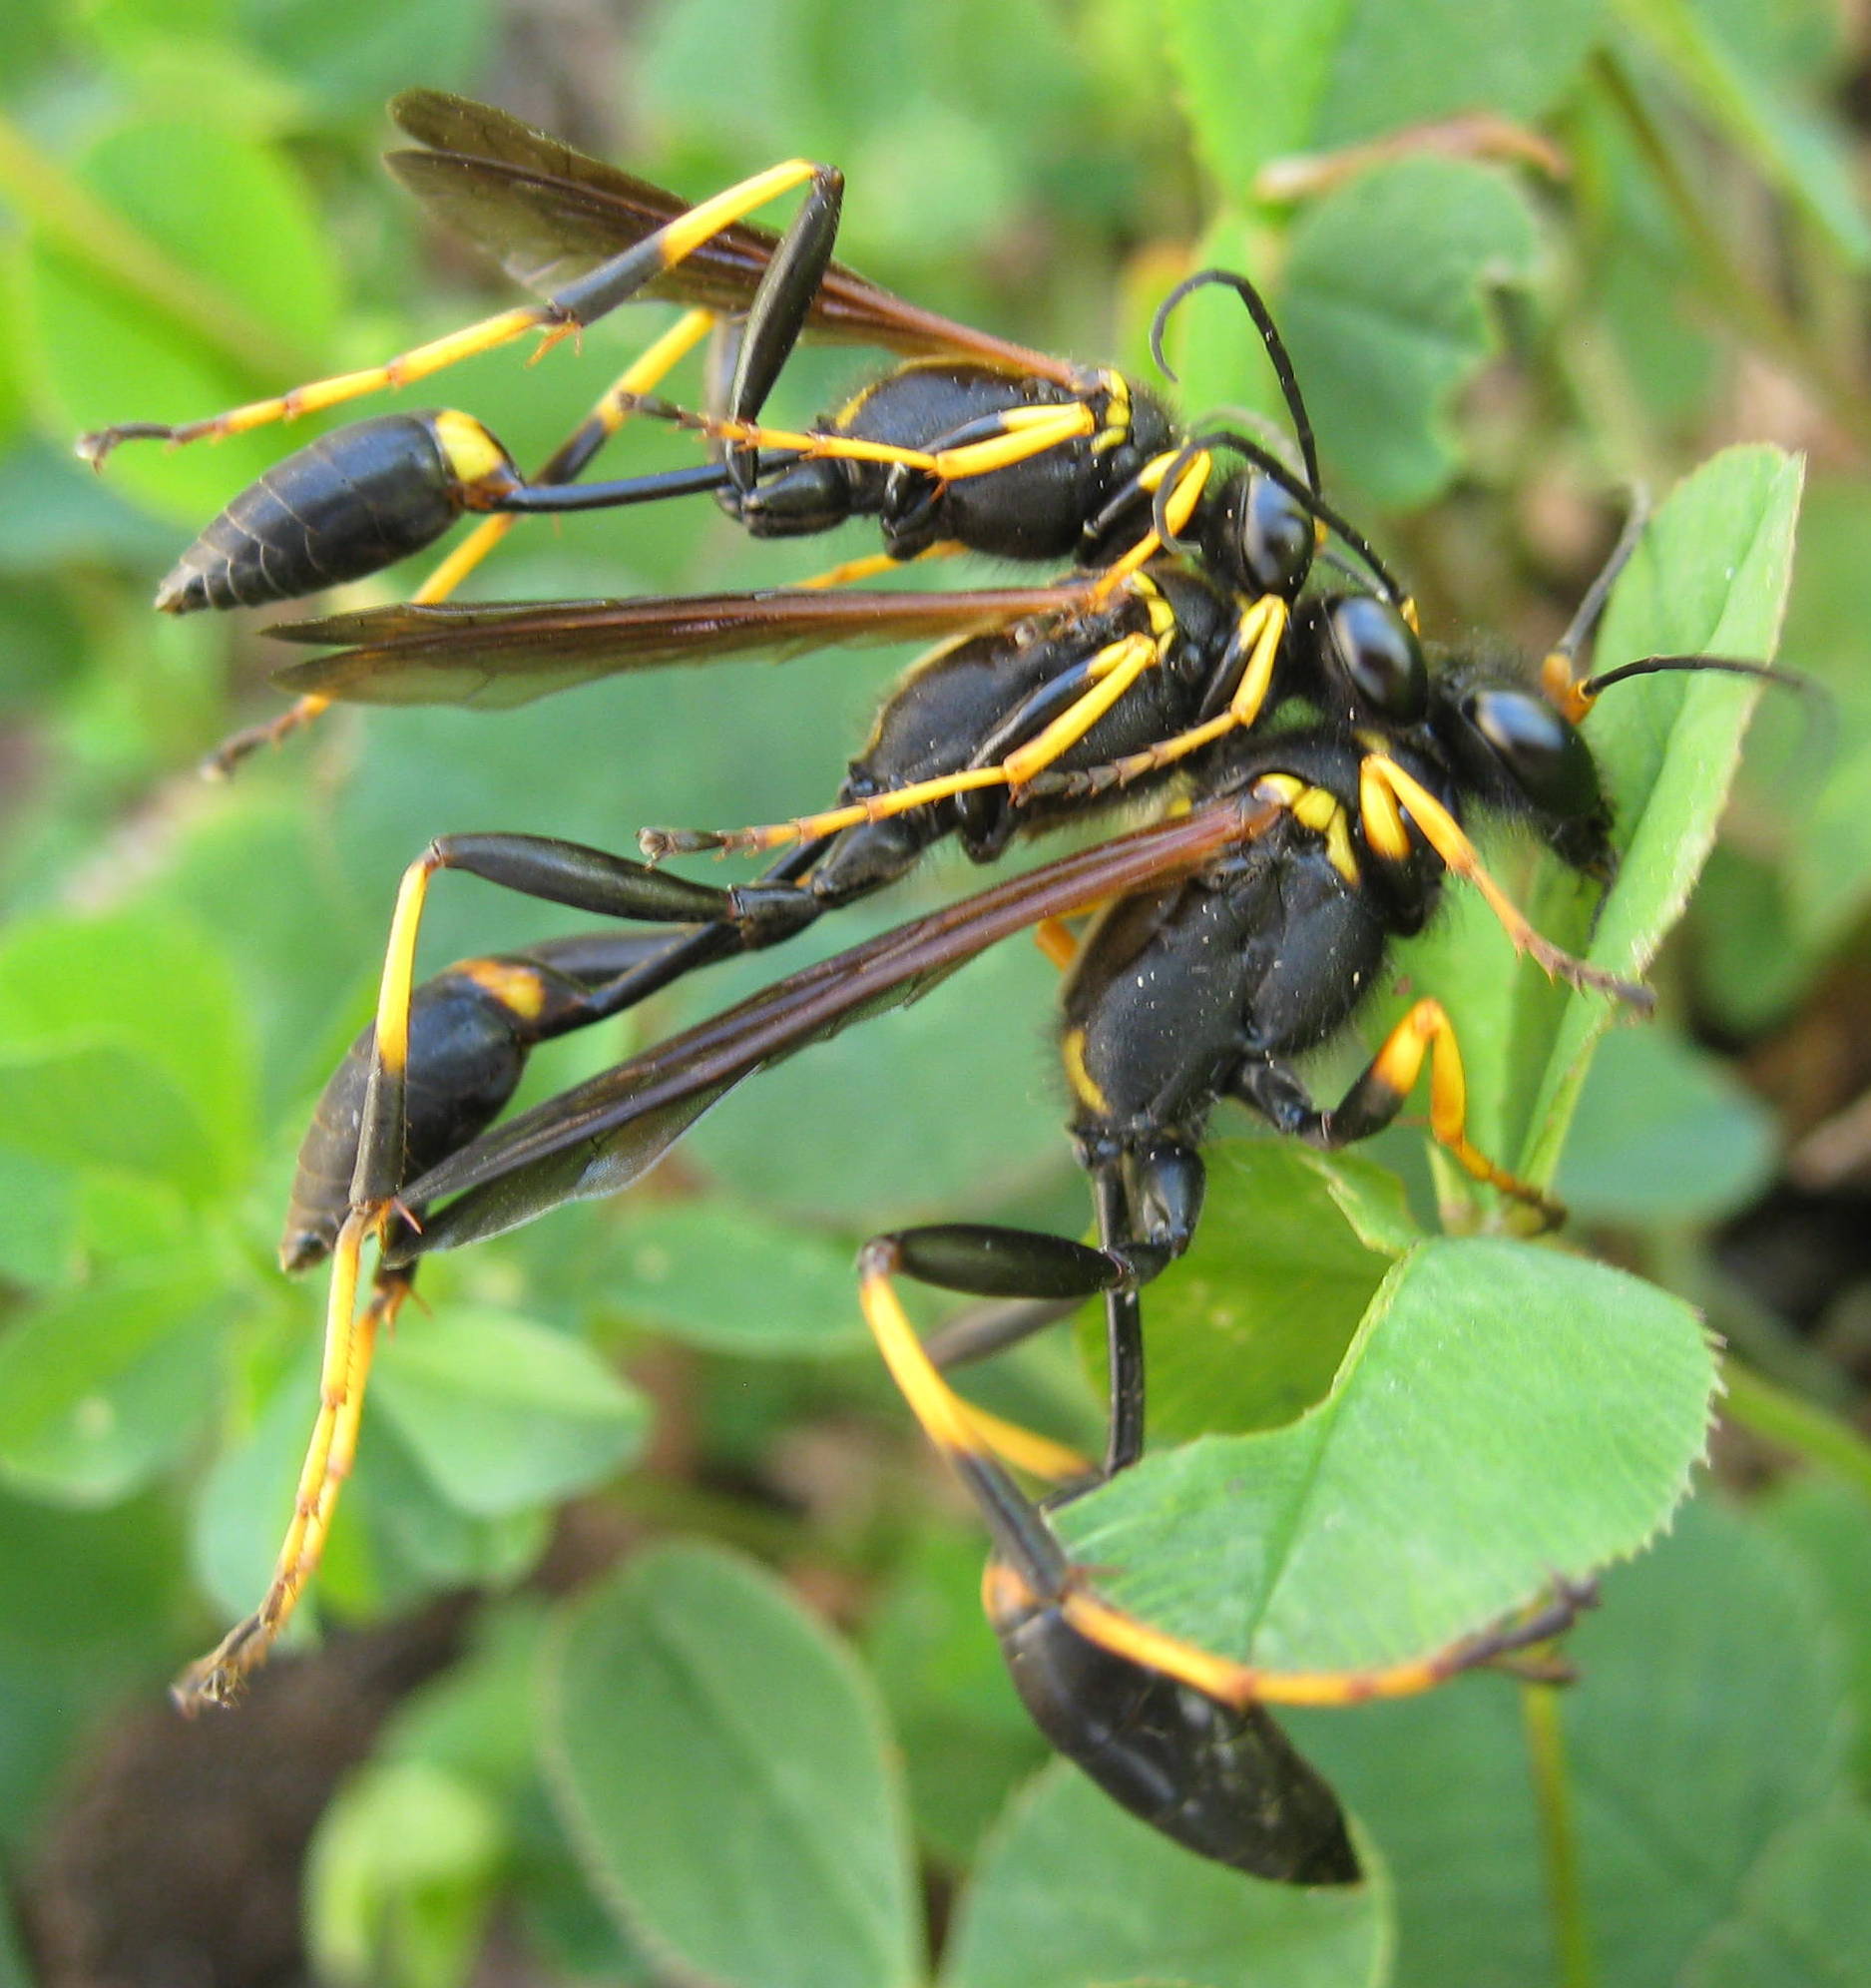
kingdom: Animalia
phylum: Arthropoda
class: Insecta
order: Hymenoptera
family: Sphecidae
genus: Sceliphron
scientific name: Sceliphron caementarium
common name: Mud dauber
